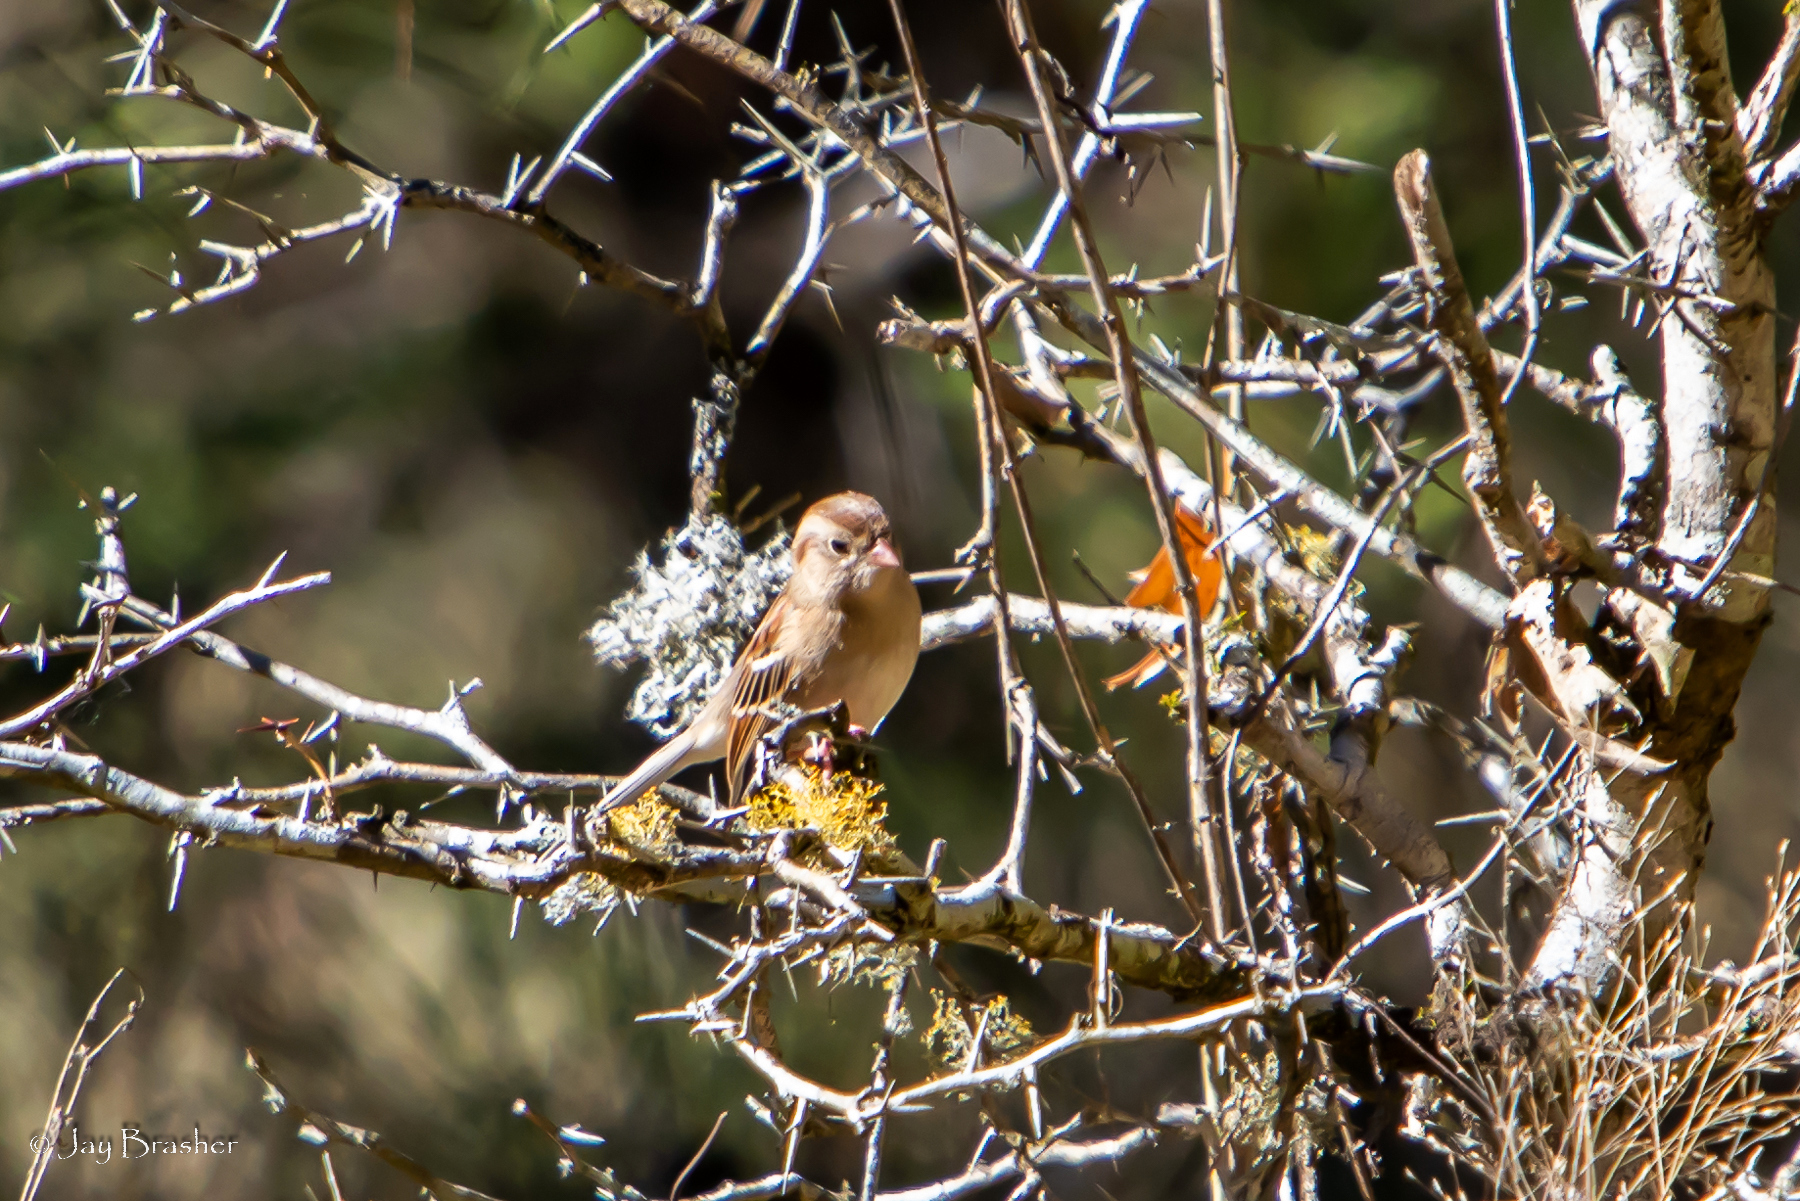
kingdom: Animalia
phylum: Chordata
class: Aves
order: Passeriformes
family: Passerellidae
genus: Spizella
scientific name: Spizella pusilla
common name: Field sparrow
